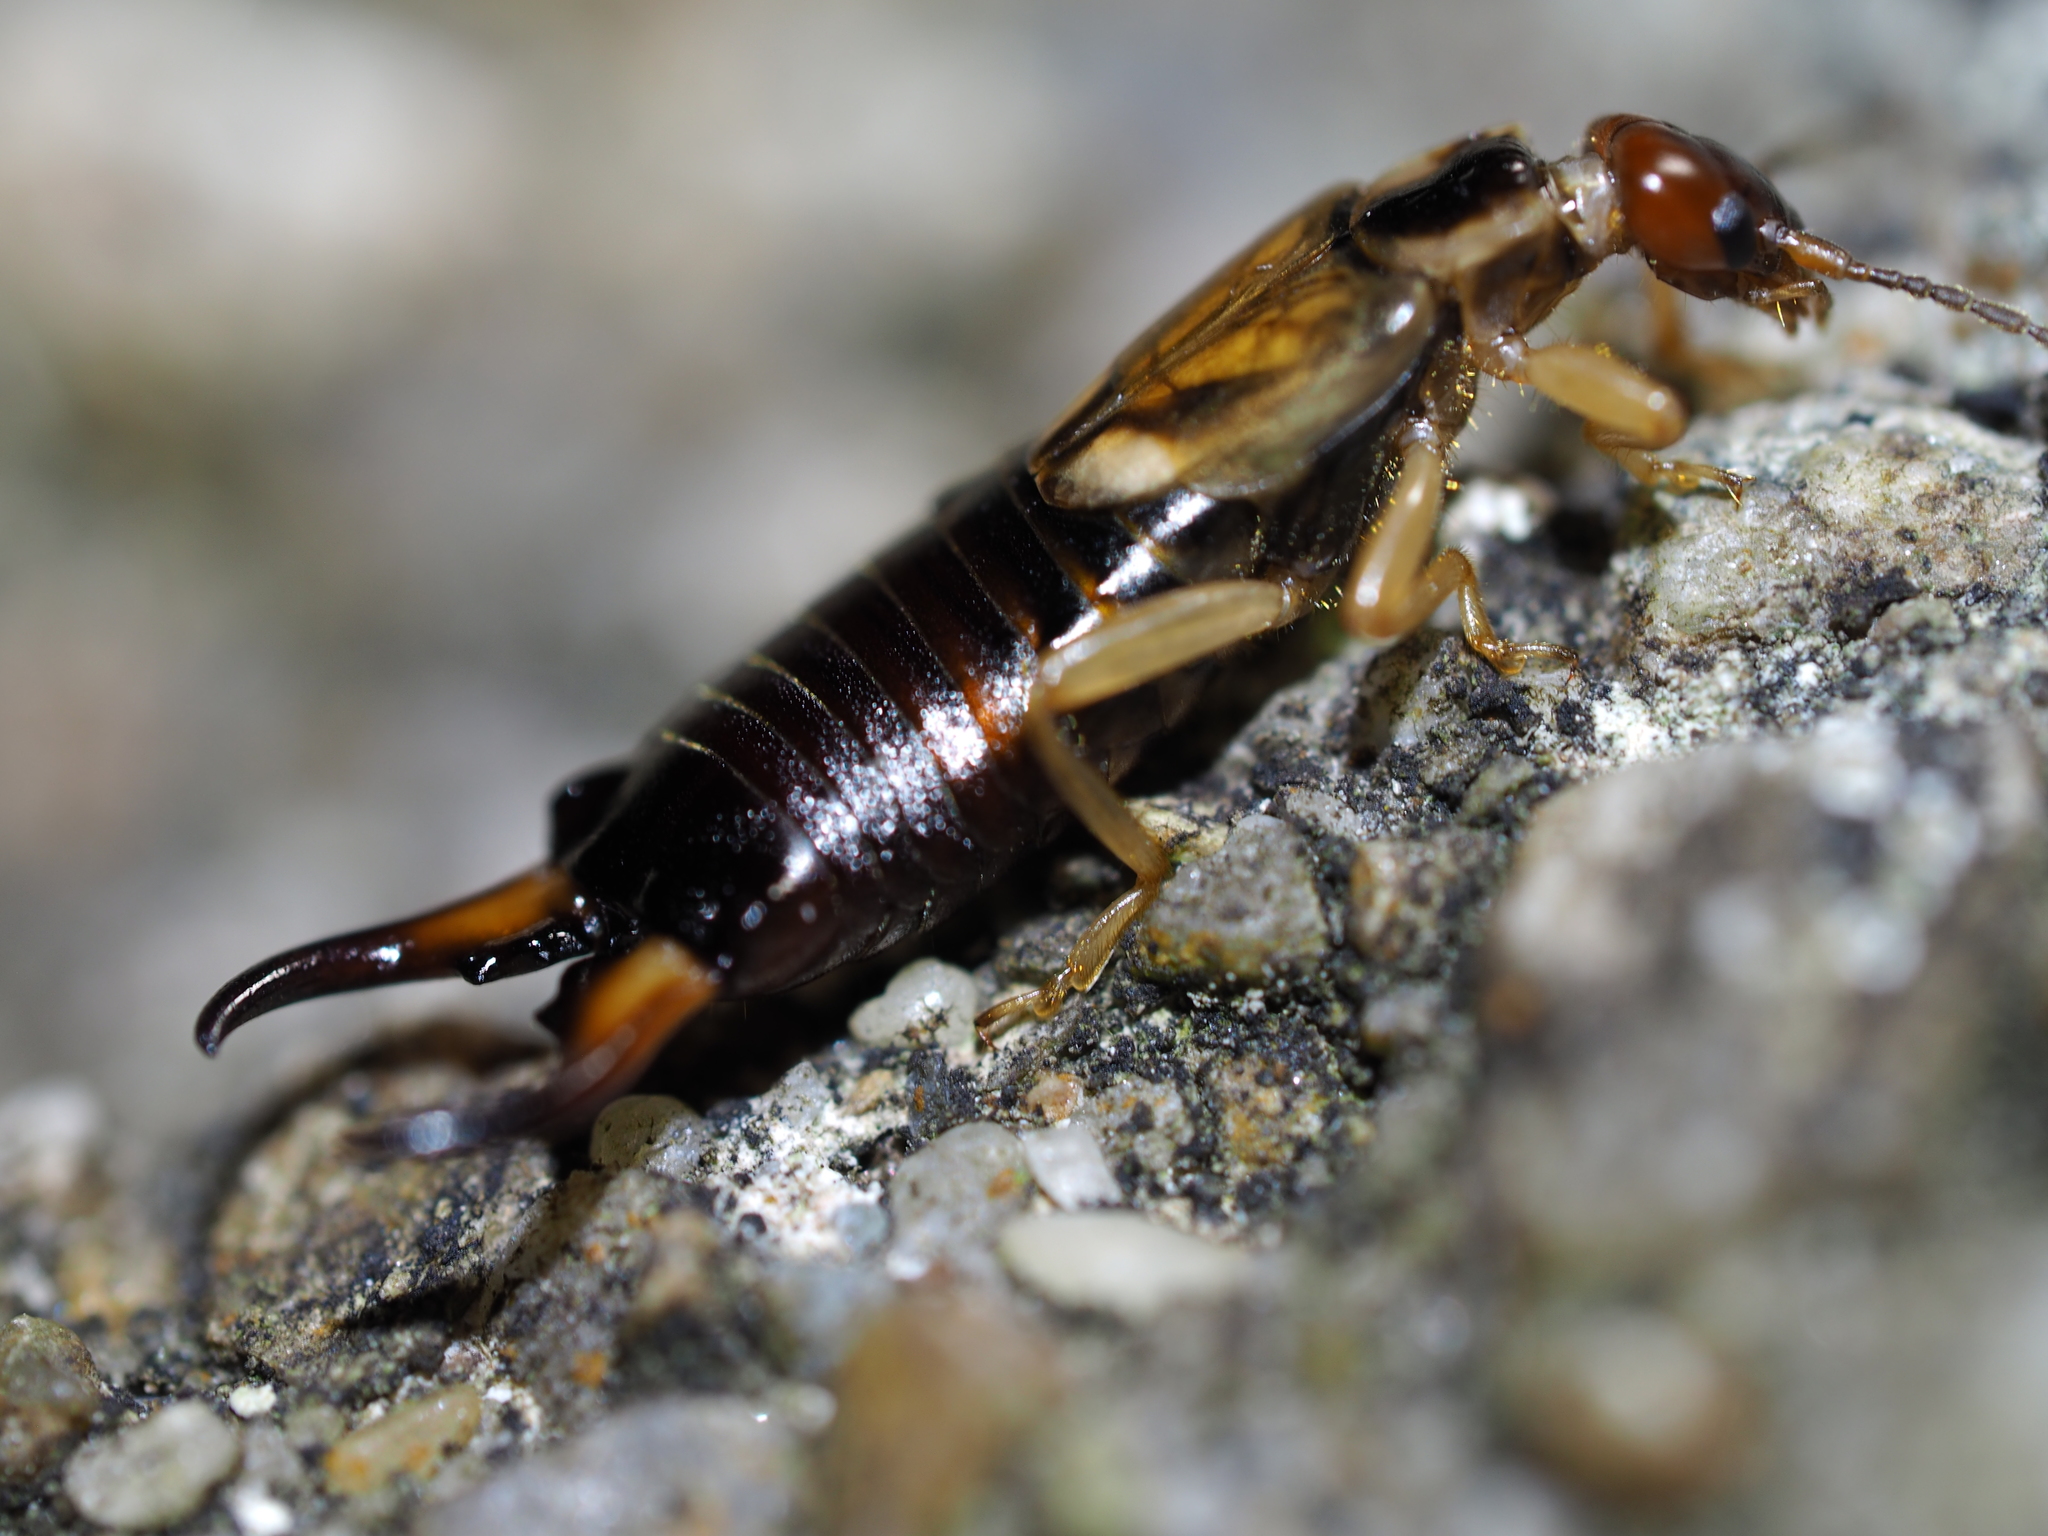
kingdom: Animalia
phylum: Arthropoda
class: Insecta
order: Dermaptera
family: Forficulidae
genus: Forficula
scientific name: Forficula
